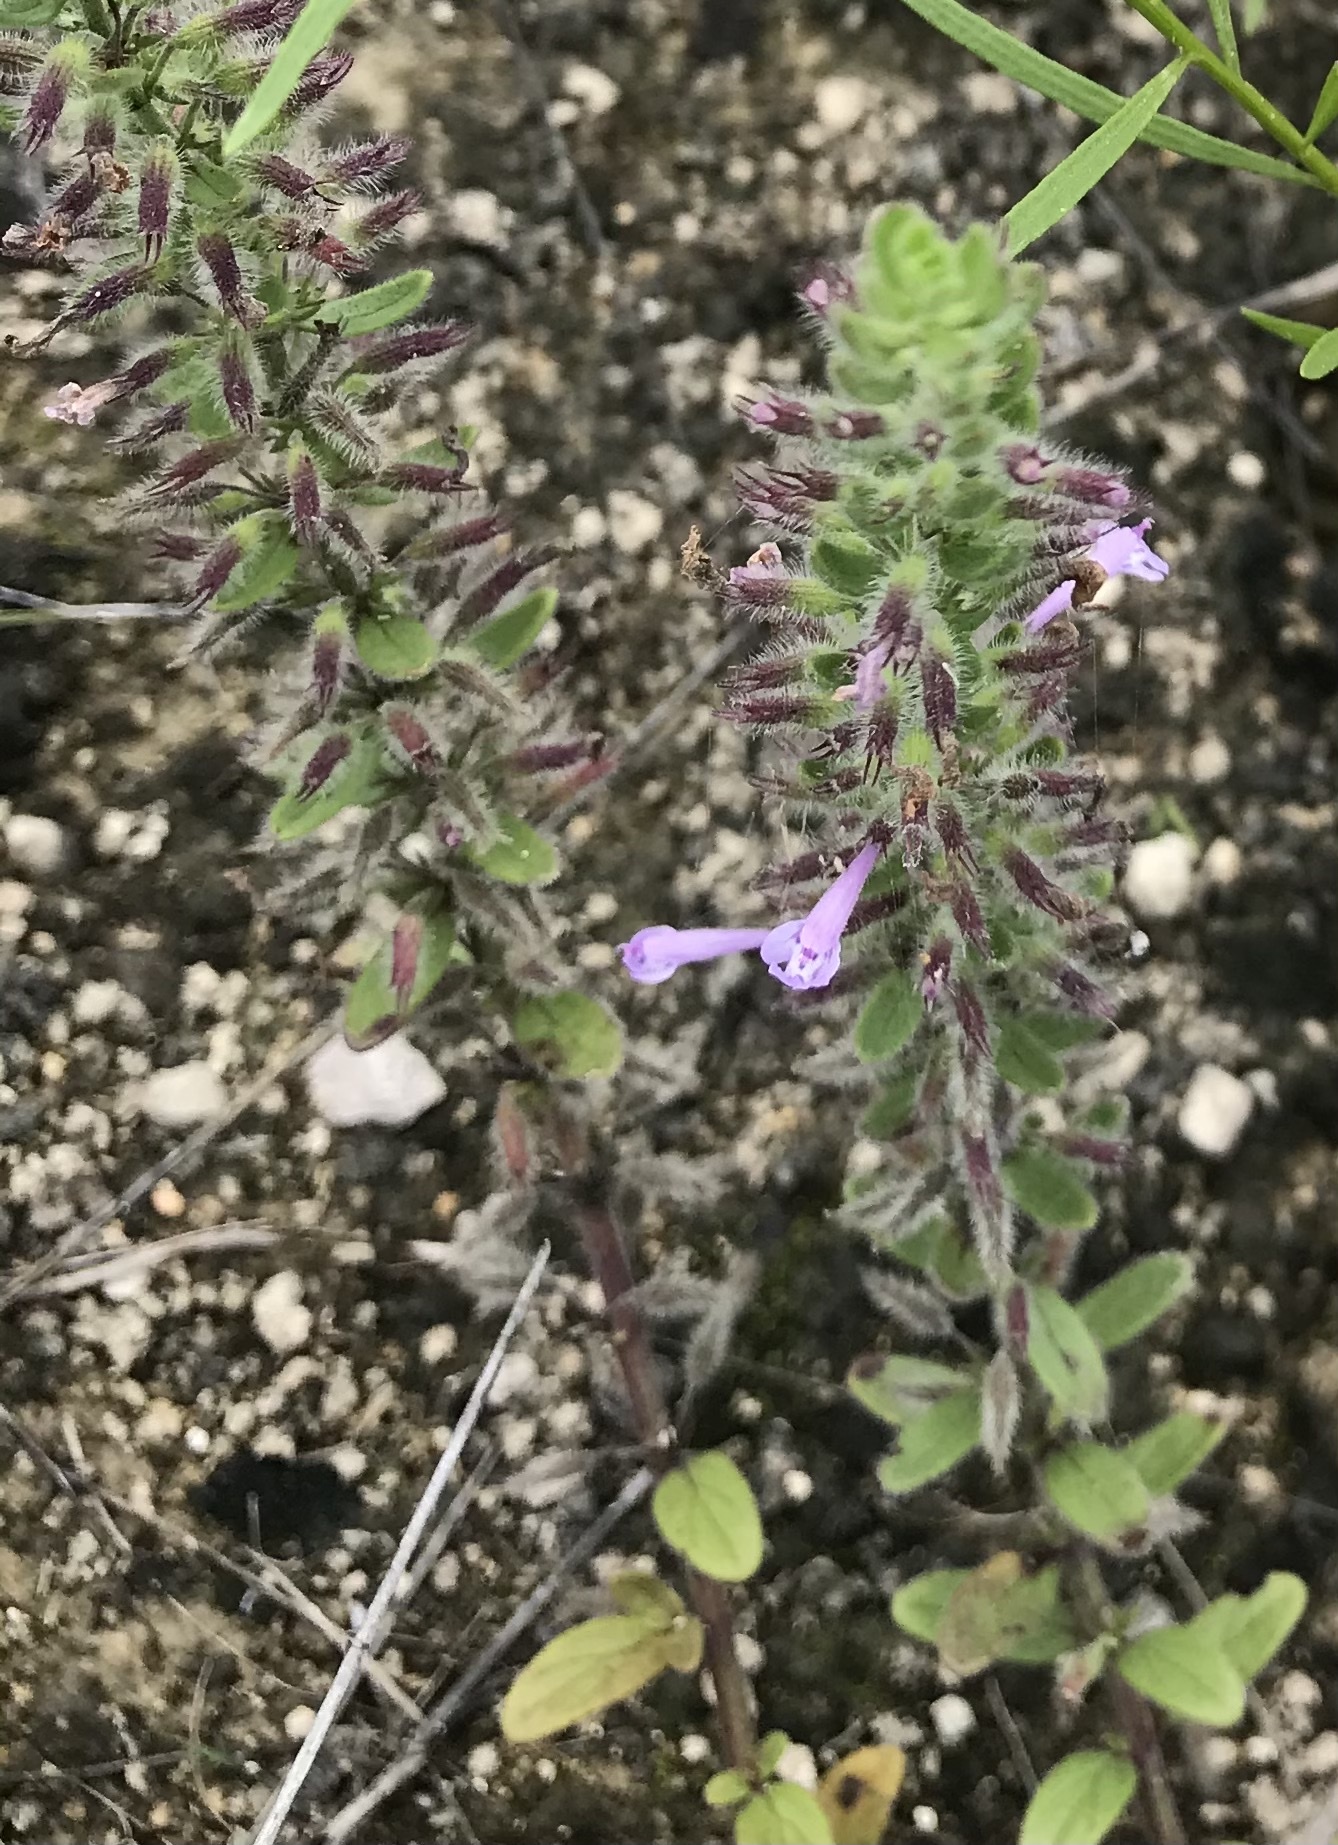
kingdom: Plantae
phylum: Tracheophyta
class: Magnoliopsida
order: Lamiales
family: Lamiaceae
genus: Hedeoma
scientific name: Hedeoma reverchonii
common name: Reverchon's false penny-royal
